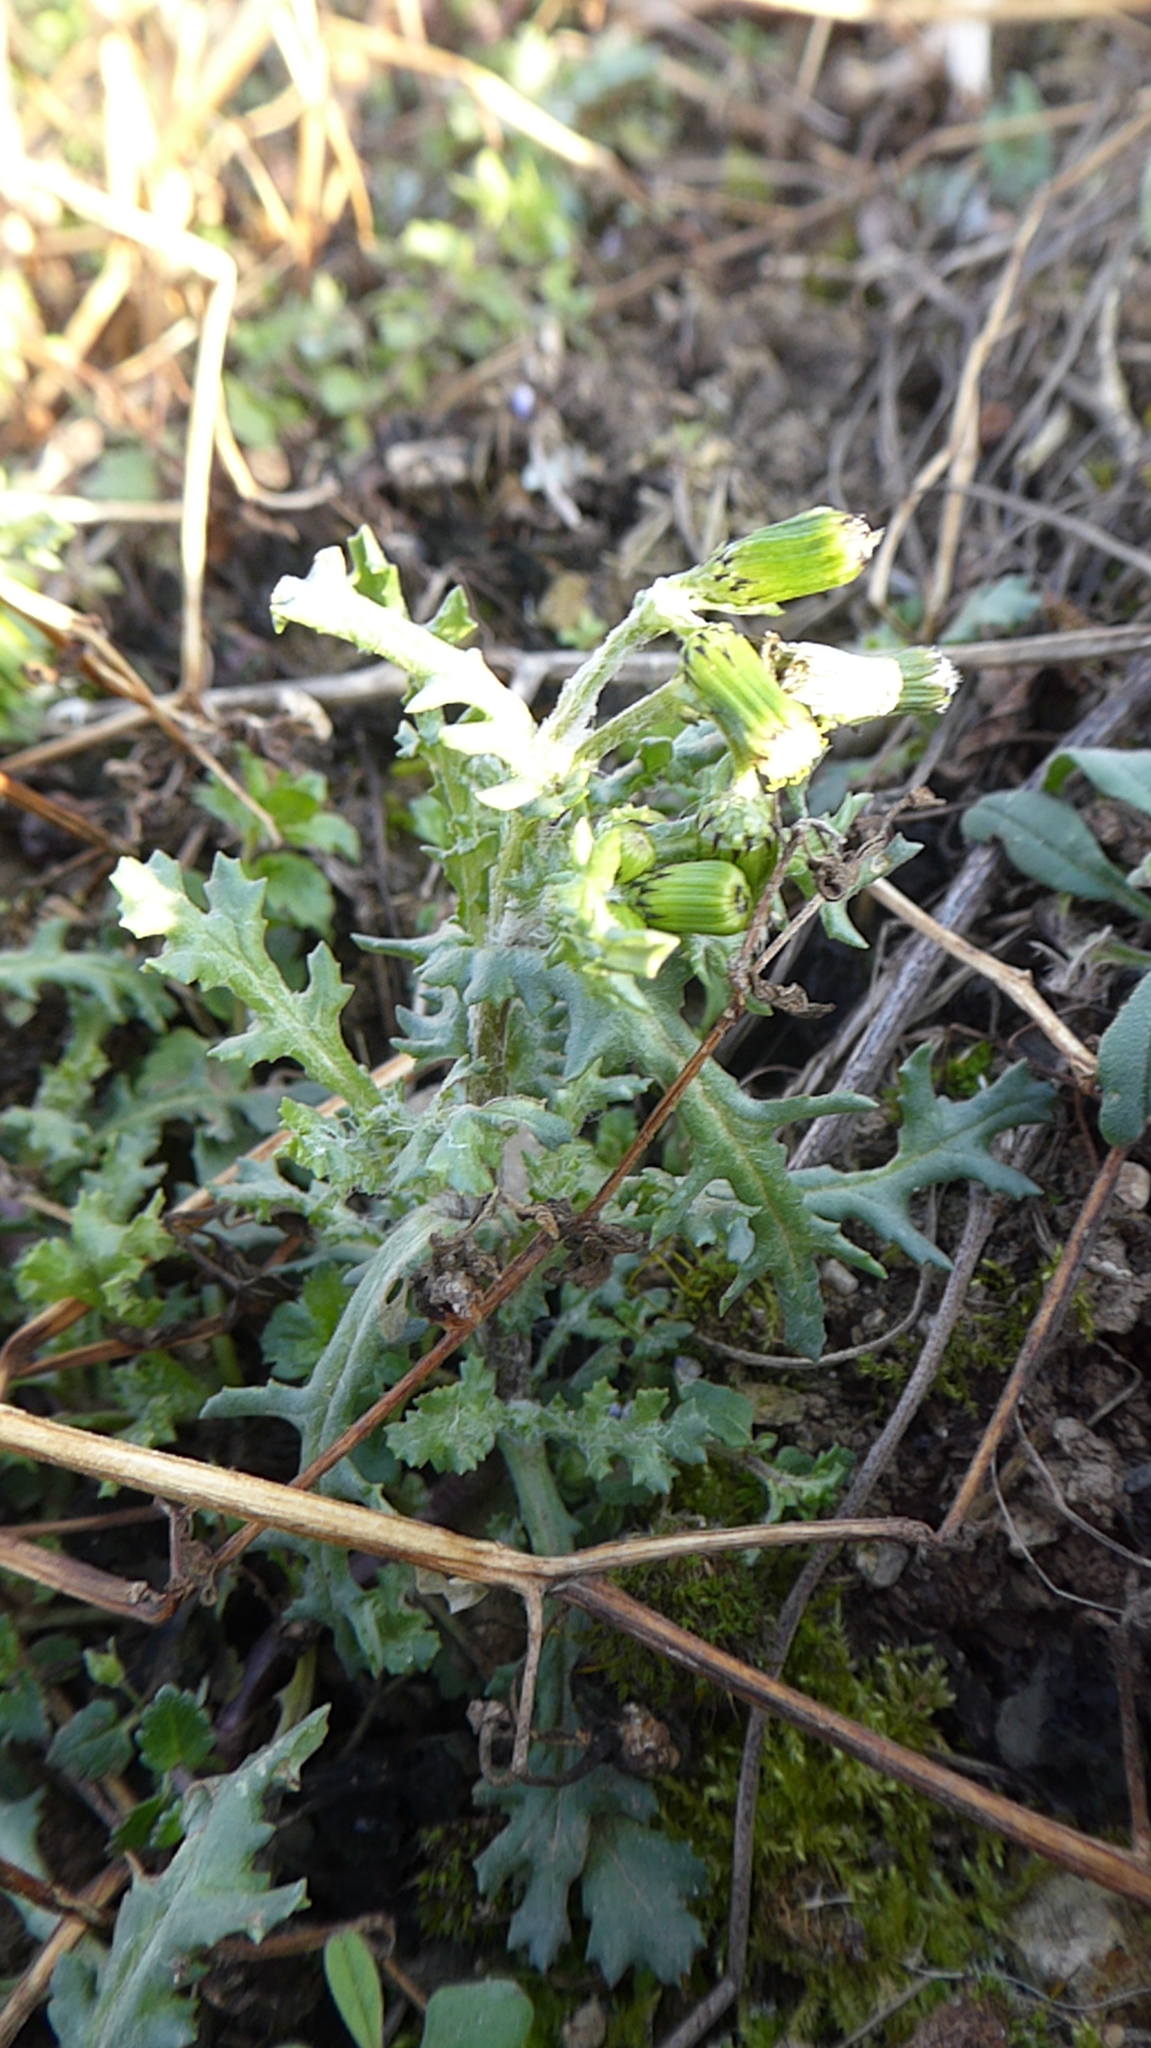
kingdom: Plantae
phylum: Tracheophyta
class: Magnoliopsida
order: Asterales
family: Asteraceae
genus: Senecio
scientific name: Senecio vulgaris
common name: Old-man-in-the-spring
